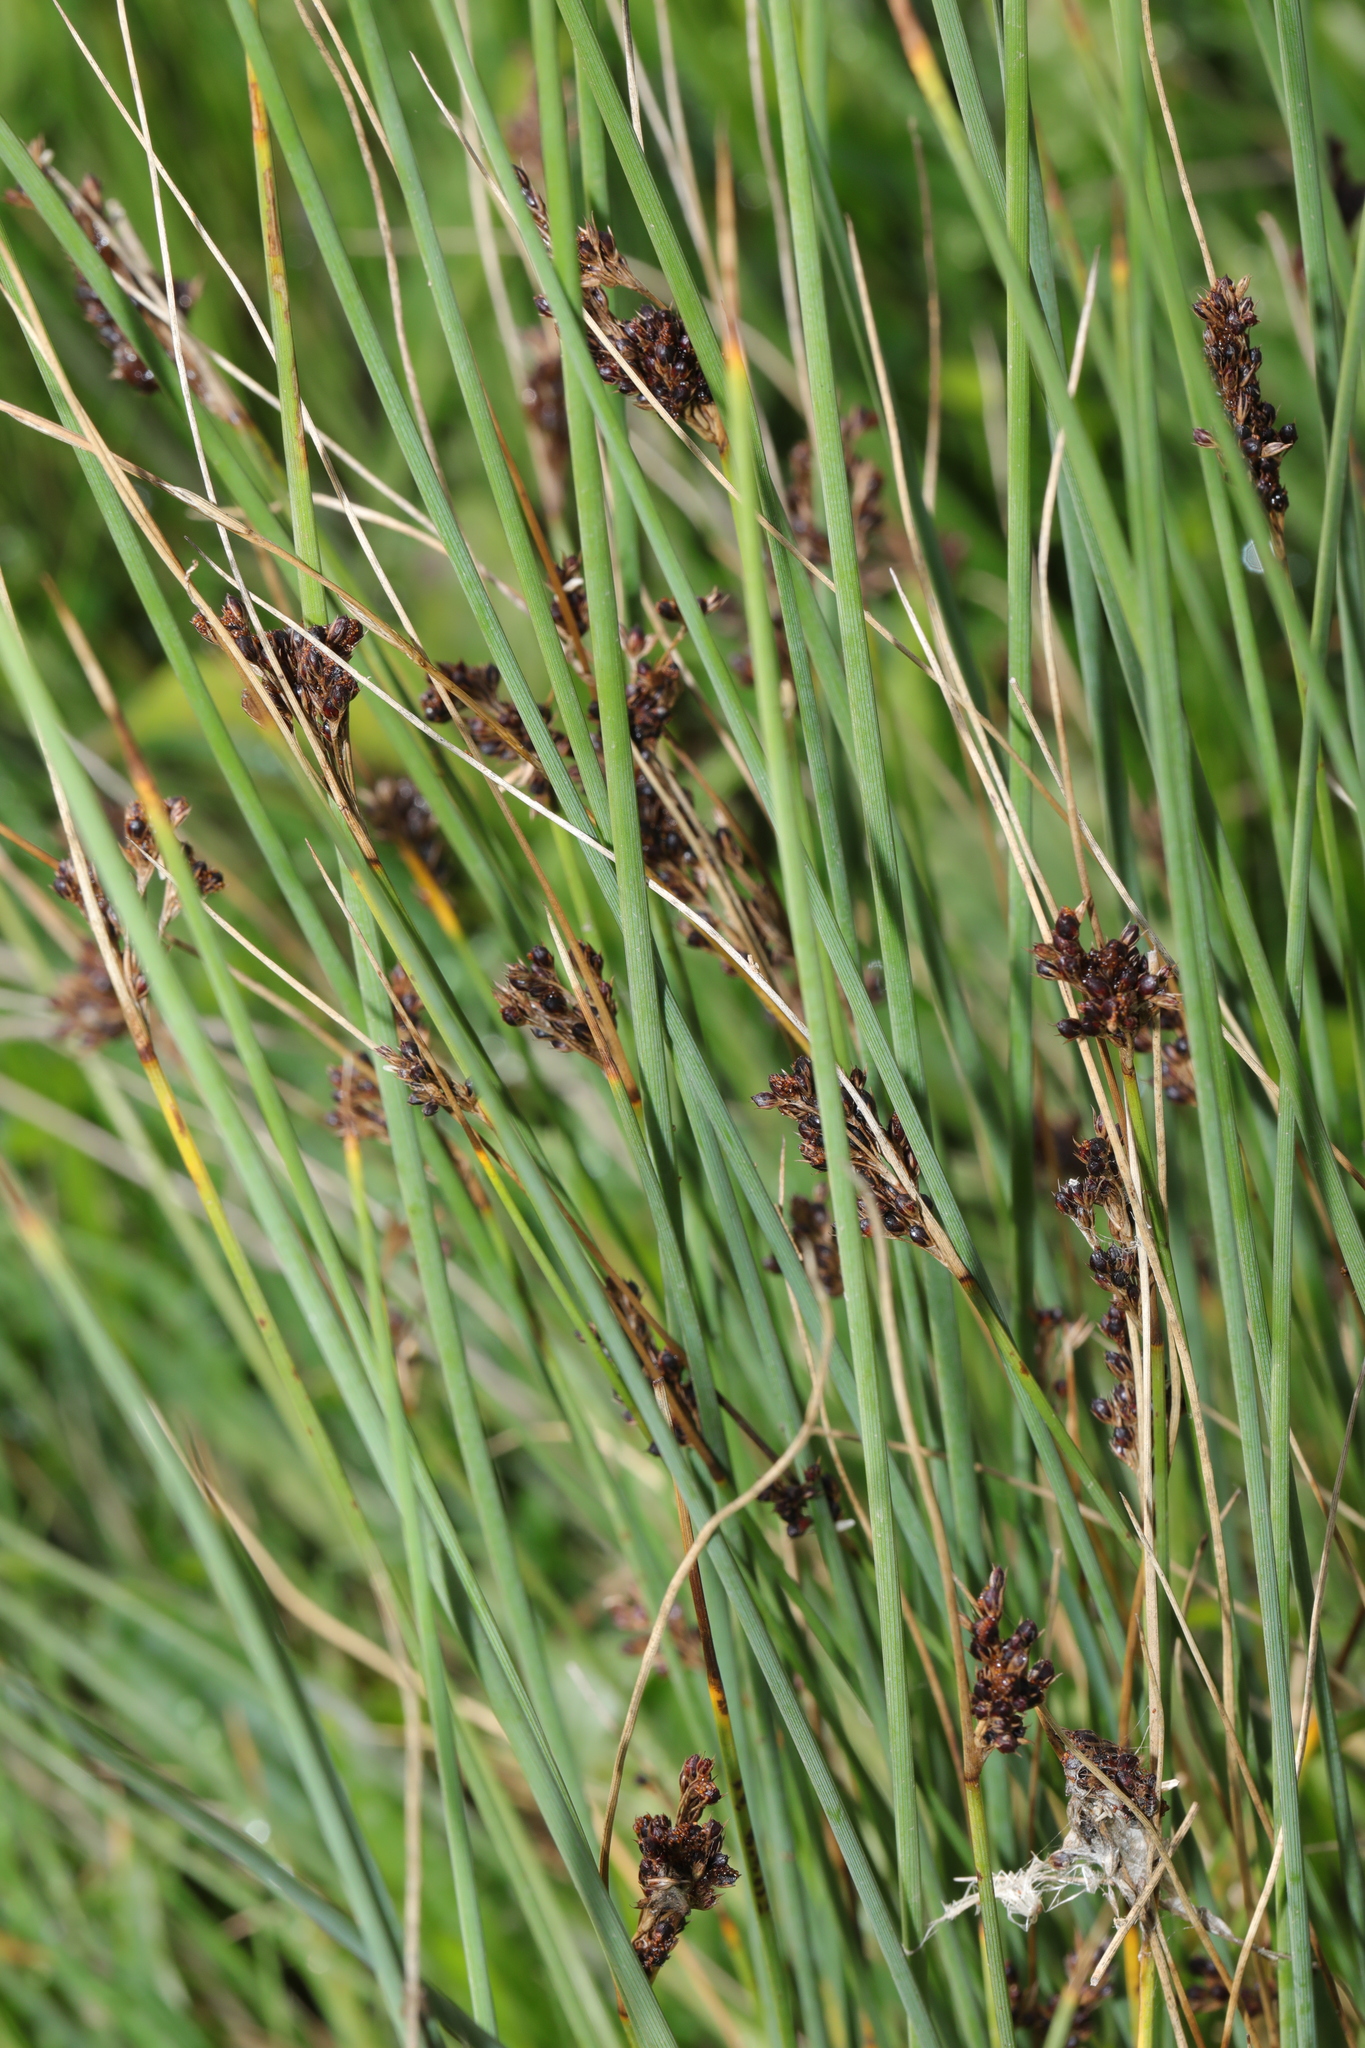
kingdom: Plantae
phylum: Tracheophyta
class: Liliopsida
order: Poales
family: Juncaceae
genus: Juncus
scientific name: Juncus inflexus
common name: Hard rush
